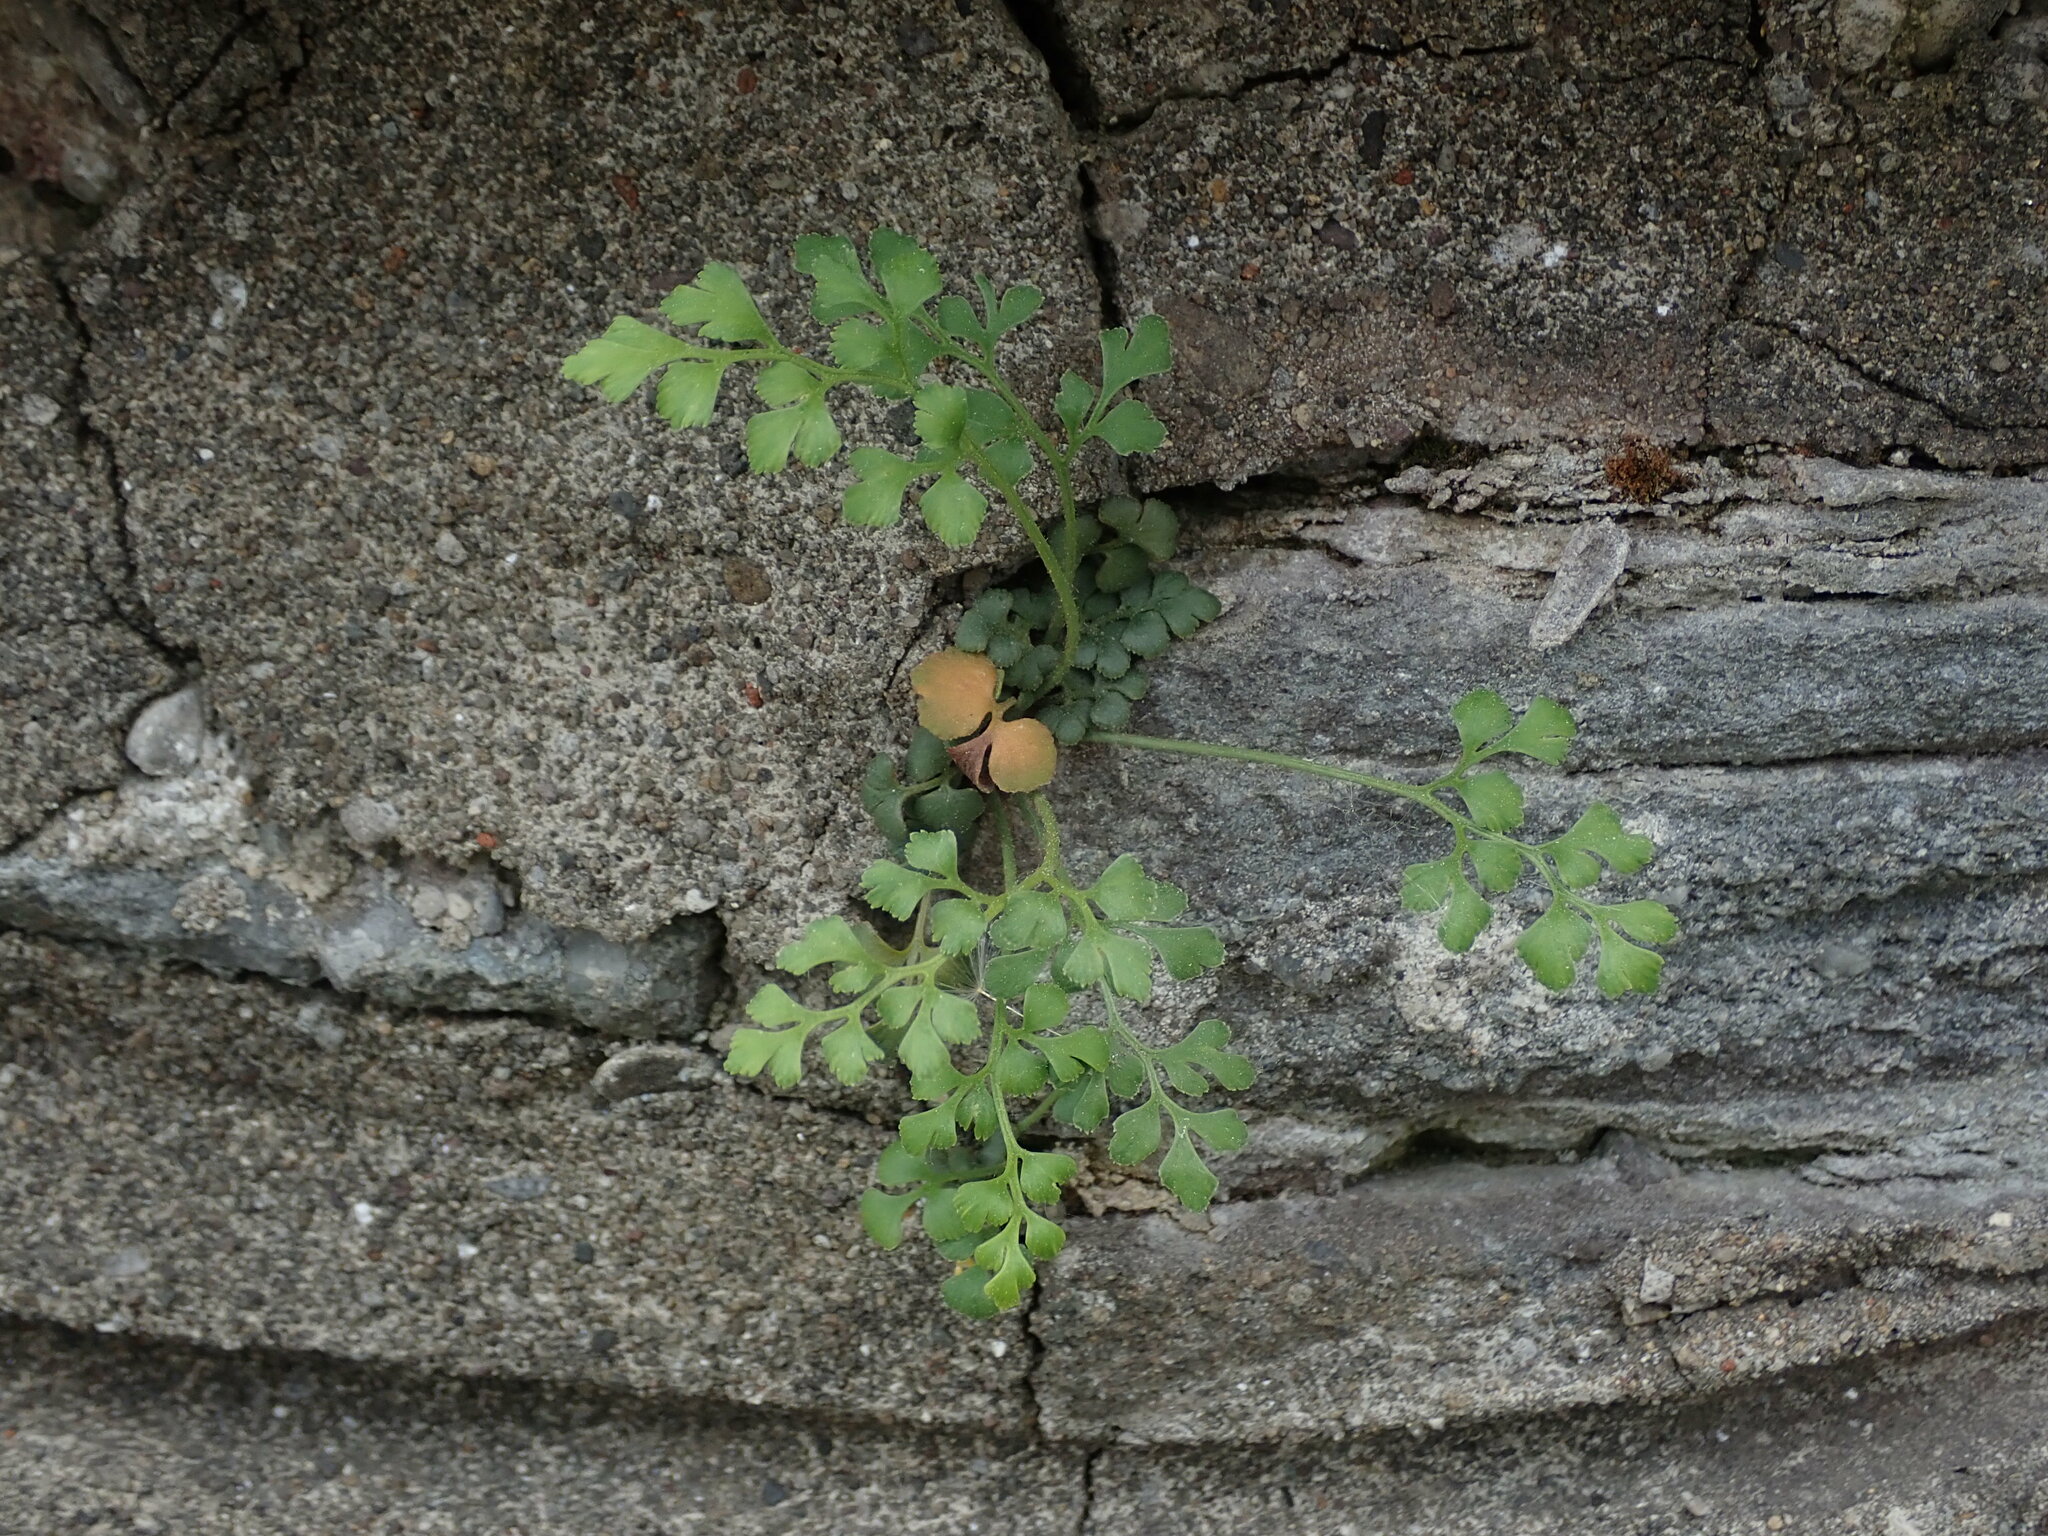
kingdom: Plantae
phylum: Tracheophyta
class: Polypodiopsida
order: Polypodiales
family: Aspleniaceae
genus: Asplenium
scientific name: Asplenium ruta-muraria
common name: Wall-rue
